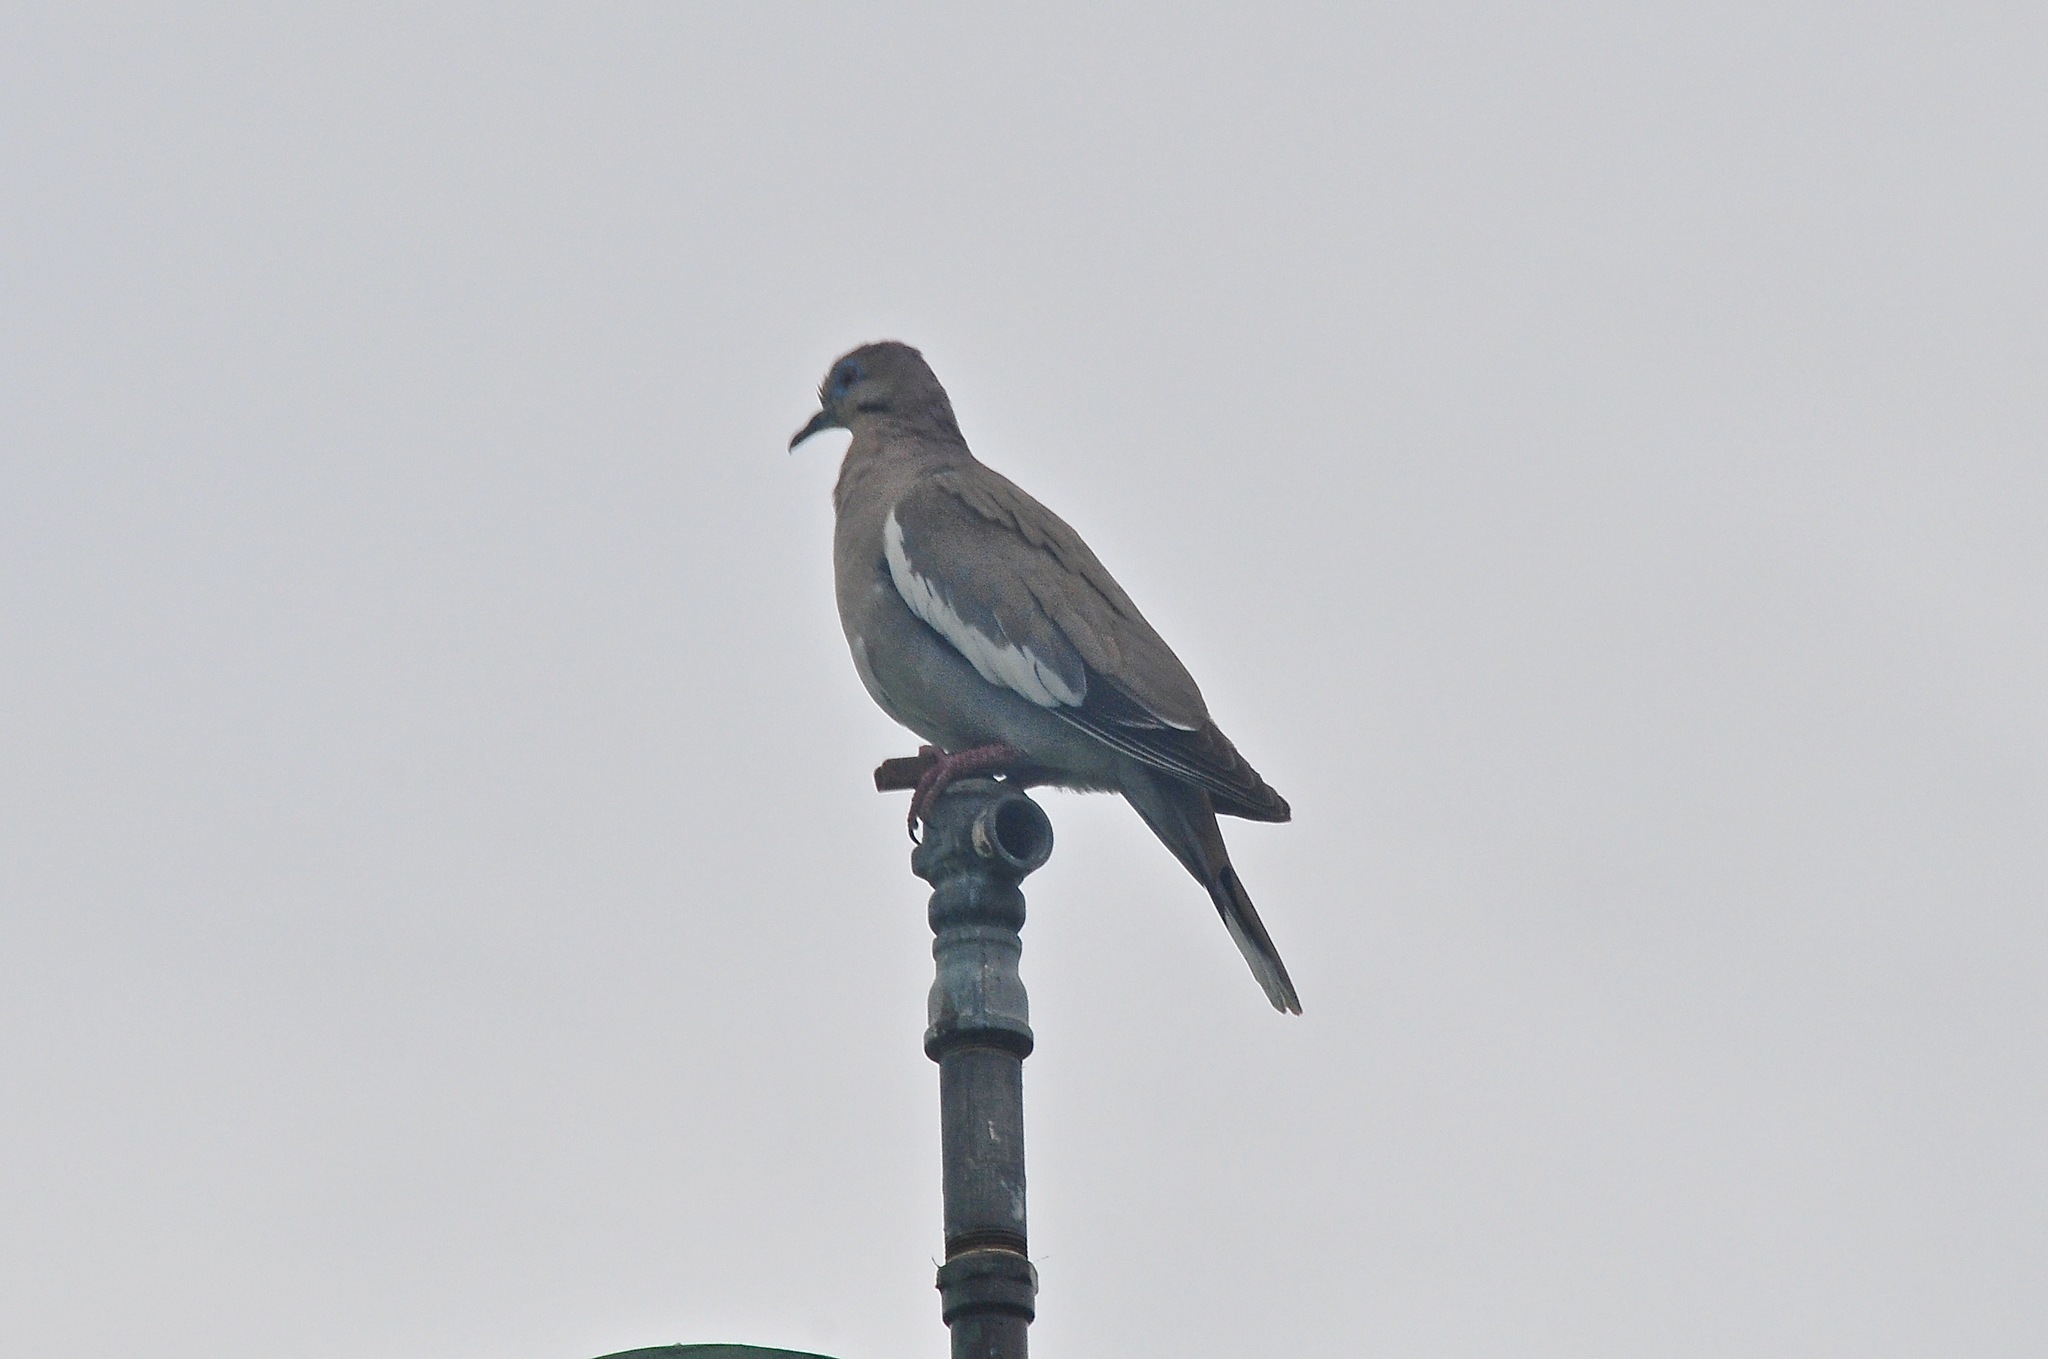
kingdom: Animalia
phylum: Chordata
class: Aves
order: Columbiformes
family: Columbidae
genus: Zenaida
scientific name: Zenaida asiatica
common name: White-winged dove
